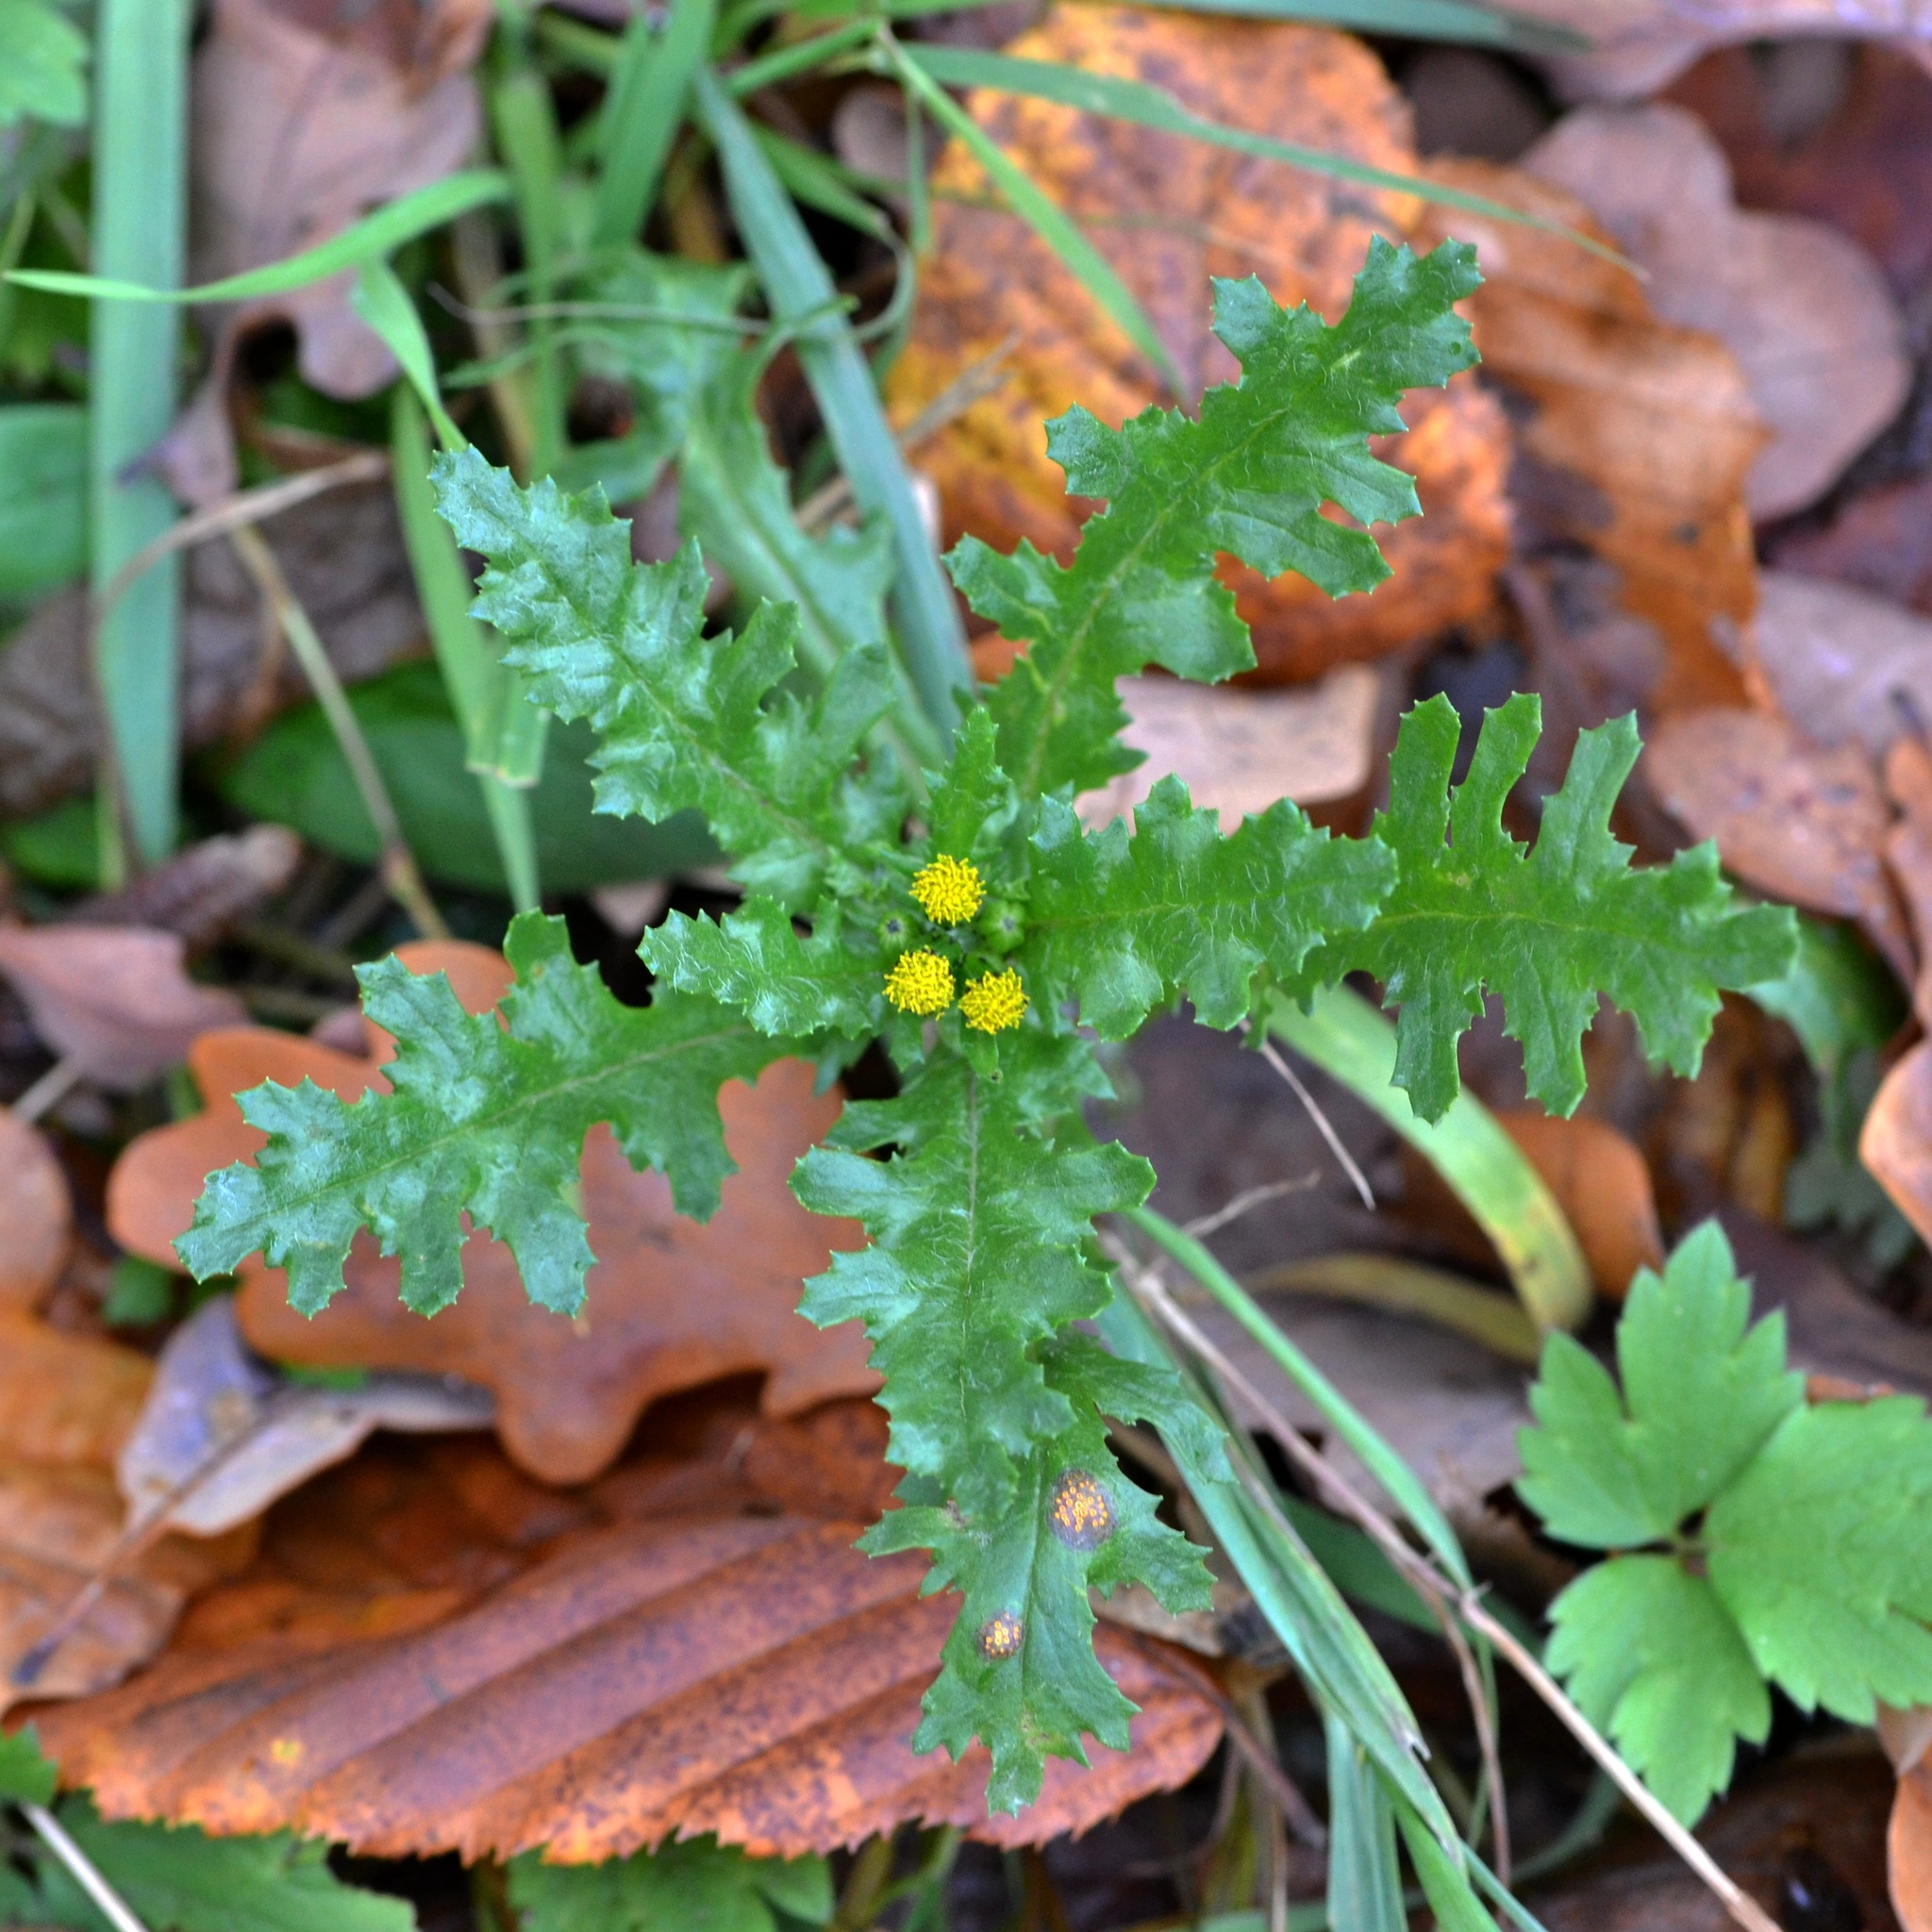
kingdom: Plantae
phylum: Tracheophyta
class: Magnoliopsida
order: Asterales
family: Asteraceae
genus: Senecio
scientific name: Senecio vulgaris
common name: Old-man-in-the-spring
